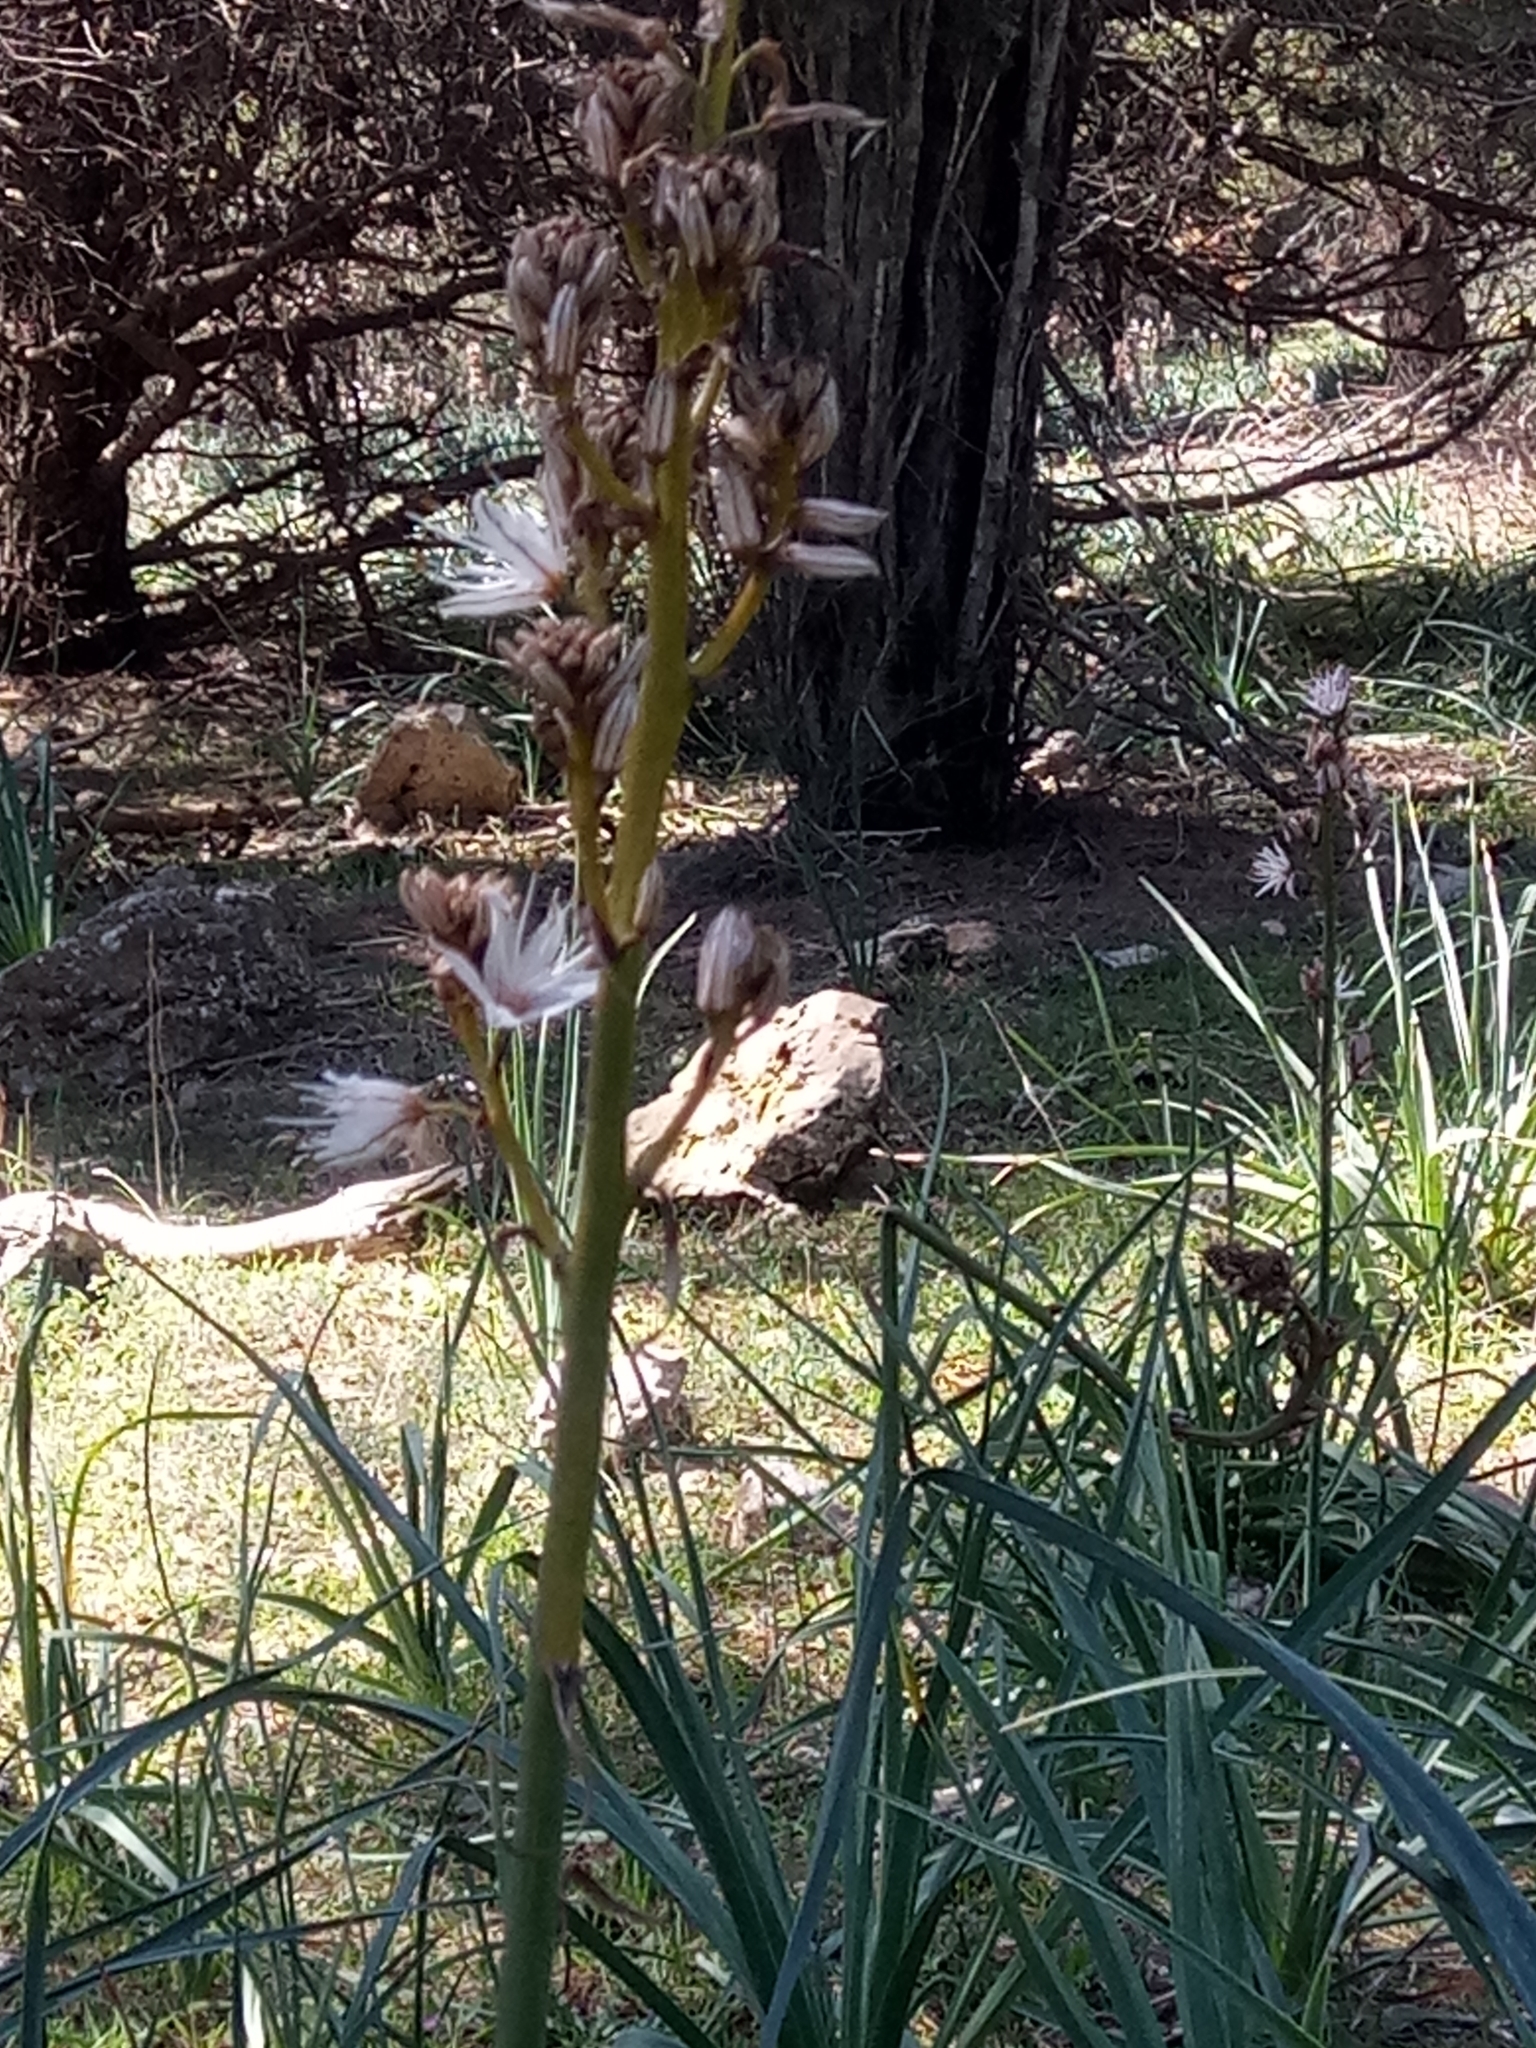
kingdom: Plantae
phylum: Tracheophyta
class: Liliopsida
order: Asparagales
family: Asphodelaceae
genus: Asphodelus
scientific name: Asphodelus ramosus
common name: Silverrod
